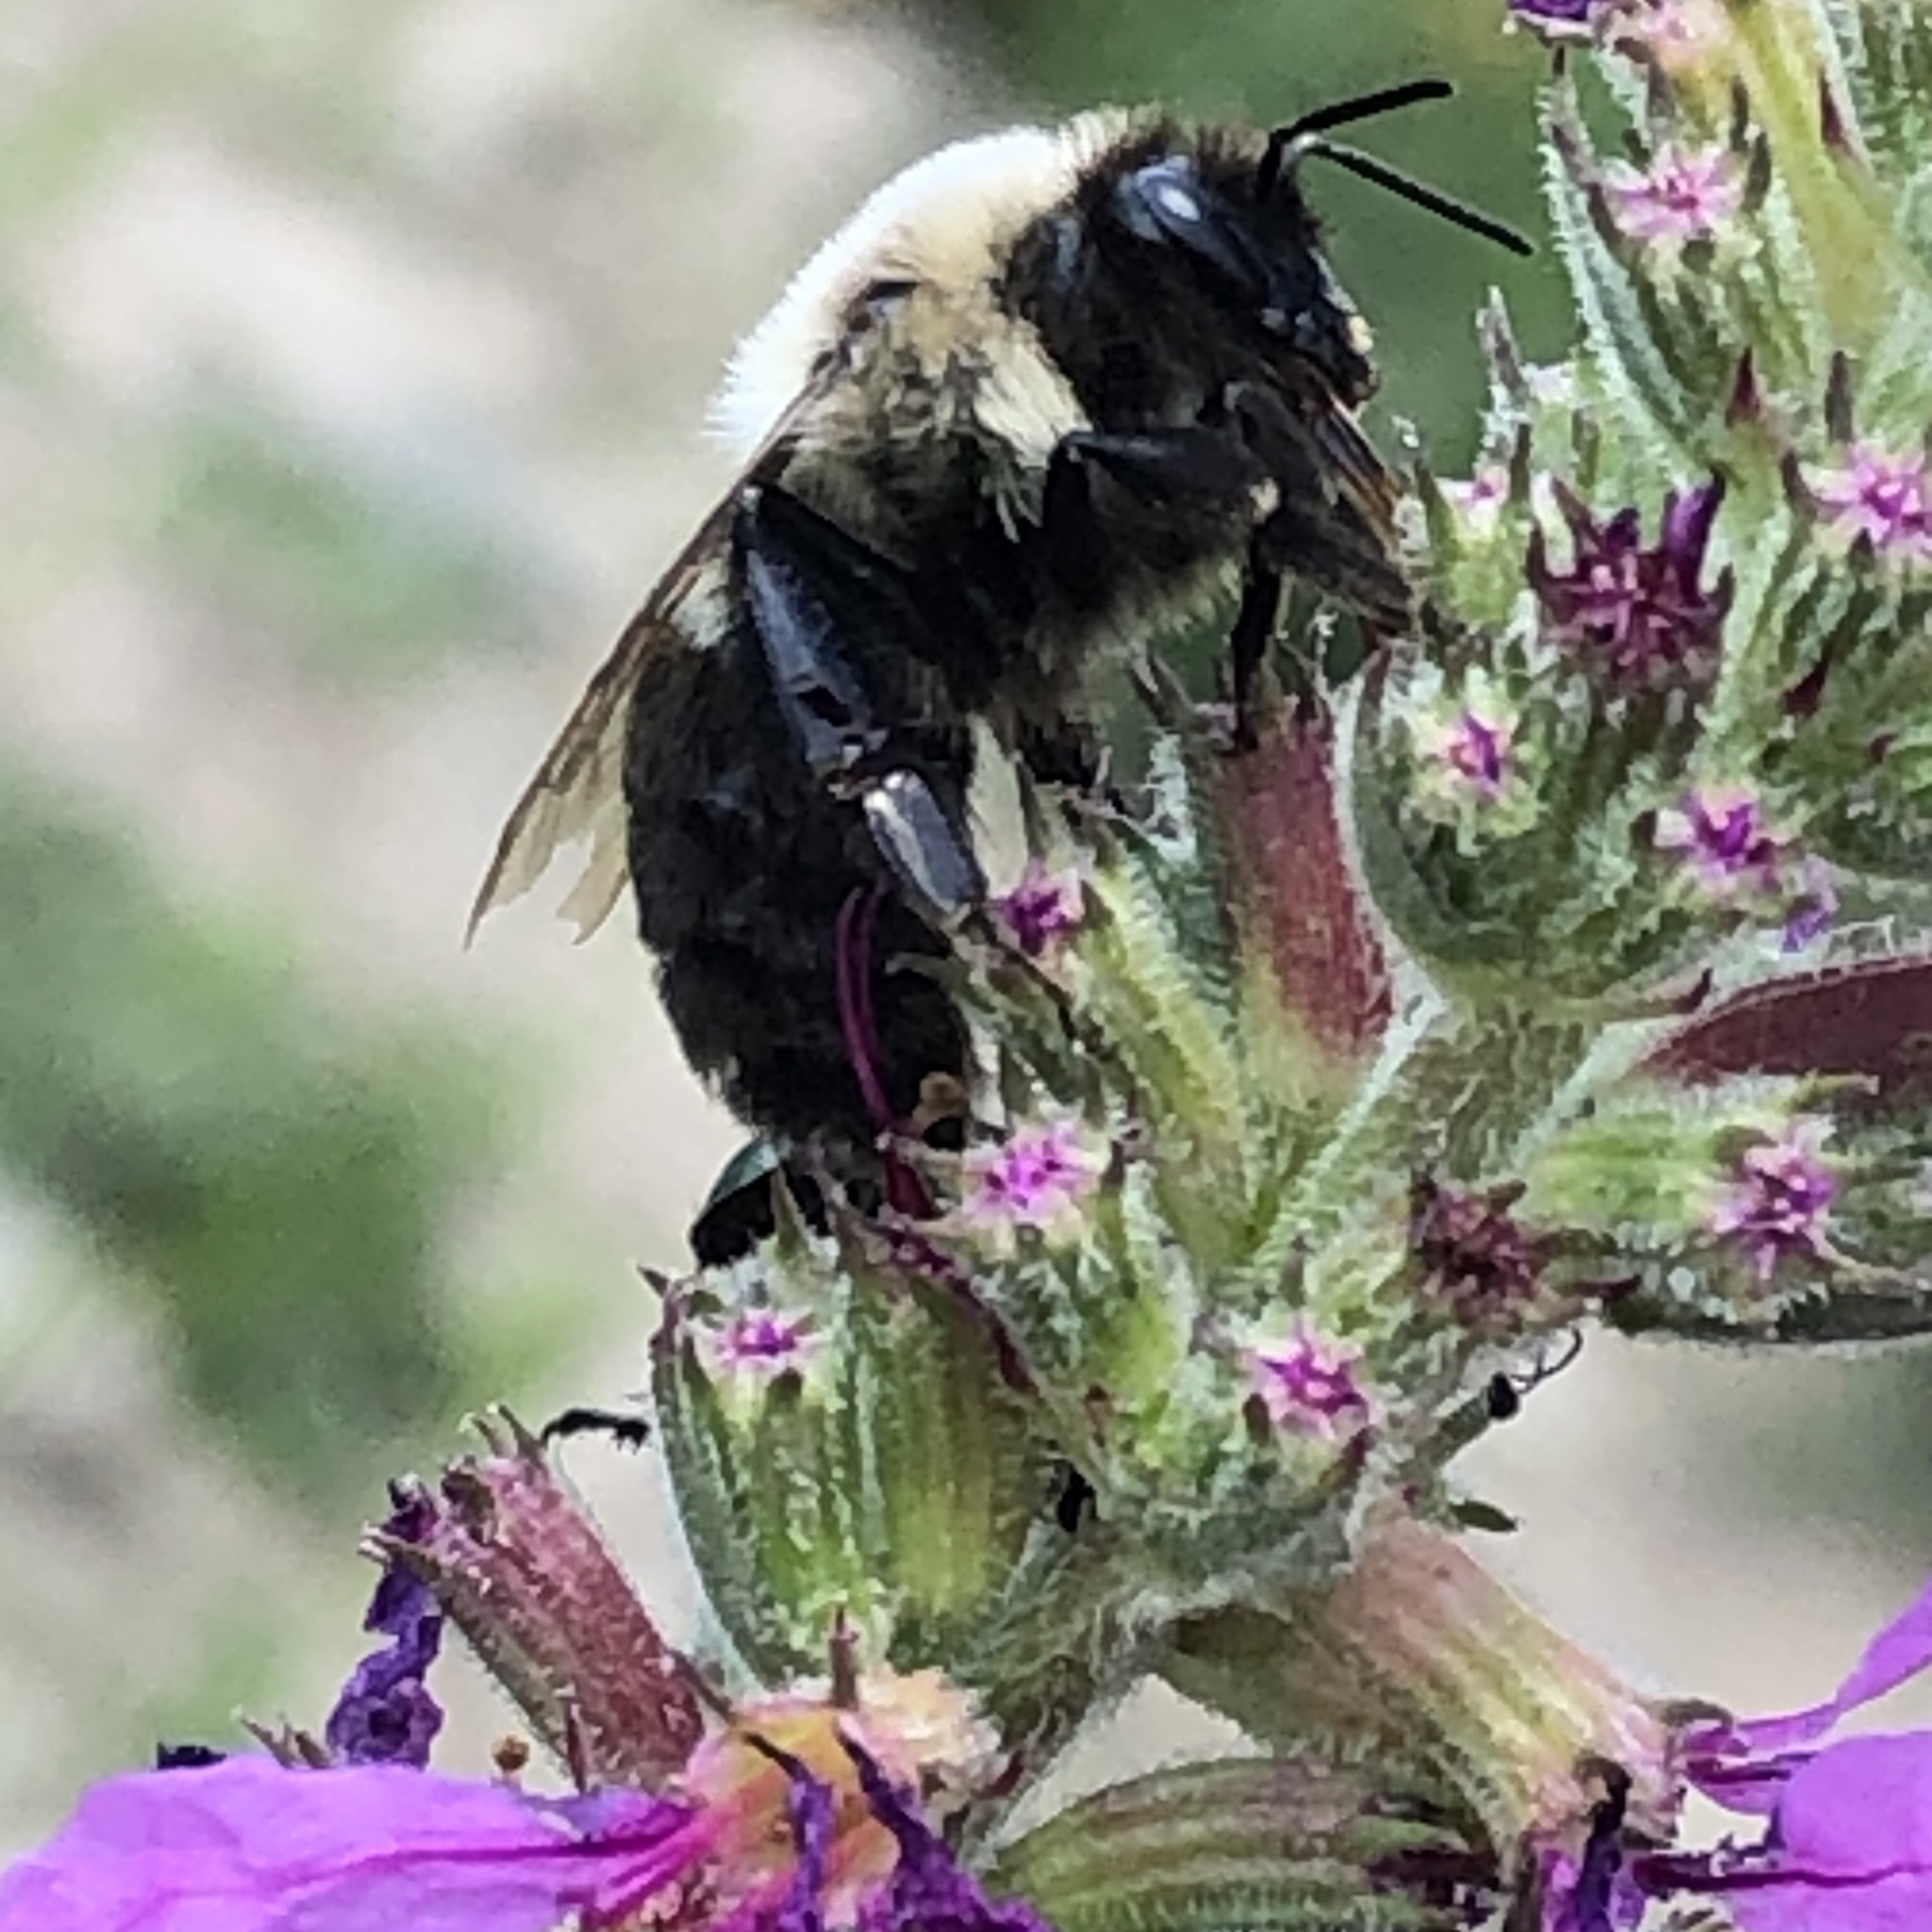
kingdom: Animalia
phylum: Arthropoda
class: Insecta
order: Hymenoptera
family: Apidae
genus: Bombus
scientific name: Bombus impatiens
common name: Common eastern bumble bee
